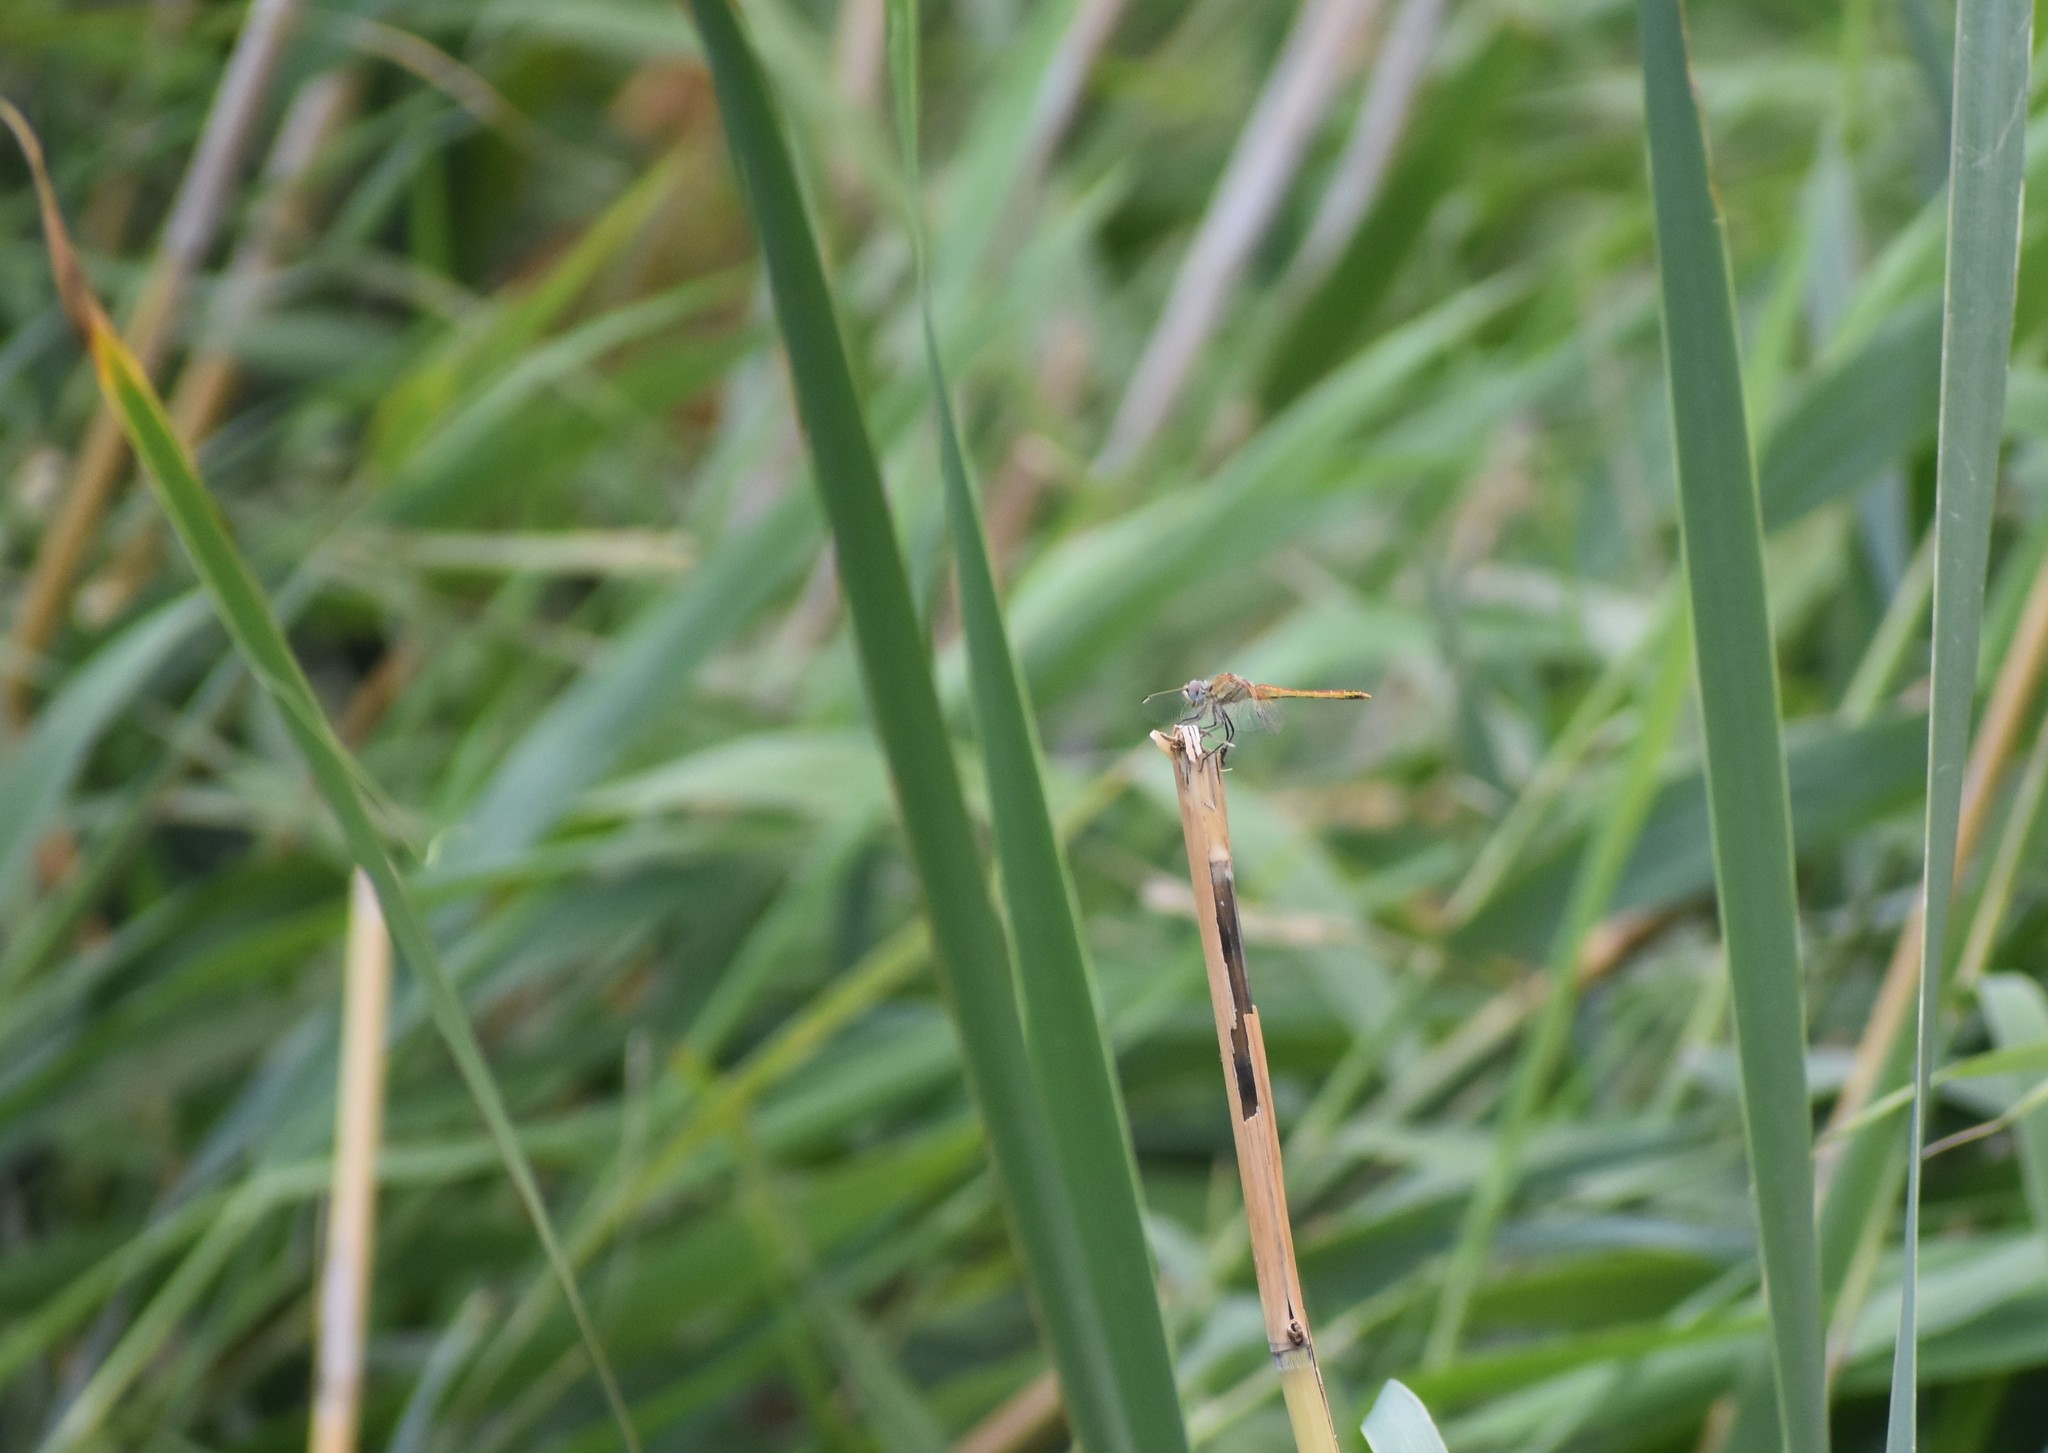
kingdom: Animalia
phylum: Arthropoda
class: Insecta
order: Odonata
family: Libellulidae
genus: Sympetrum
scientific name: Sympetrum fonscolombii
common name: Red-veined darter
